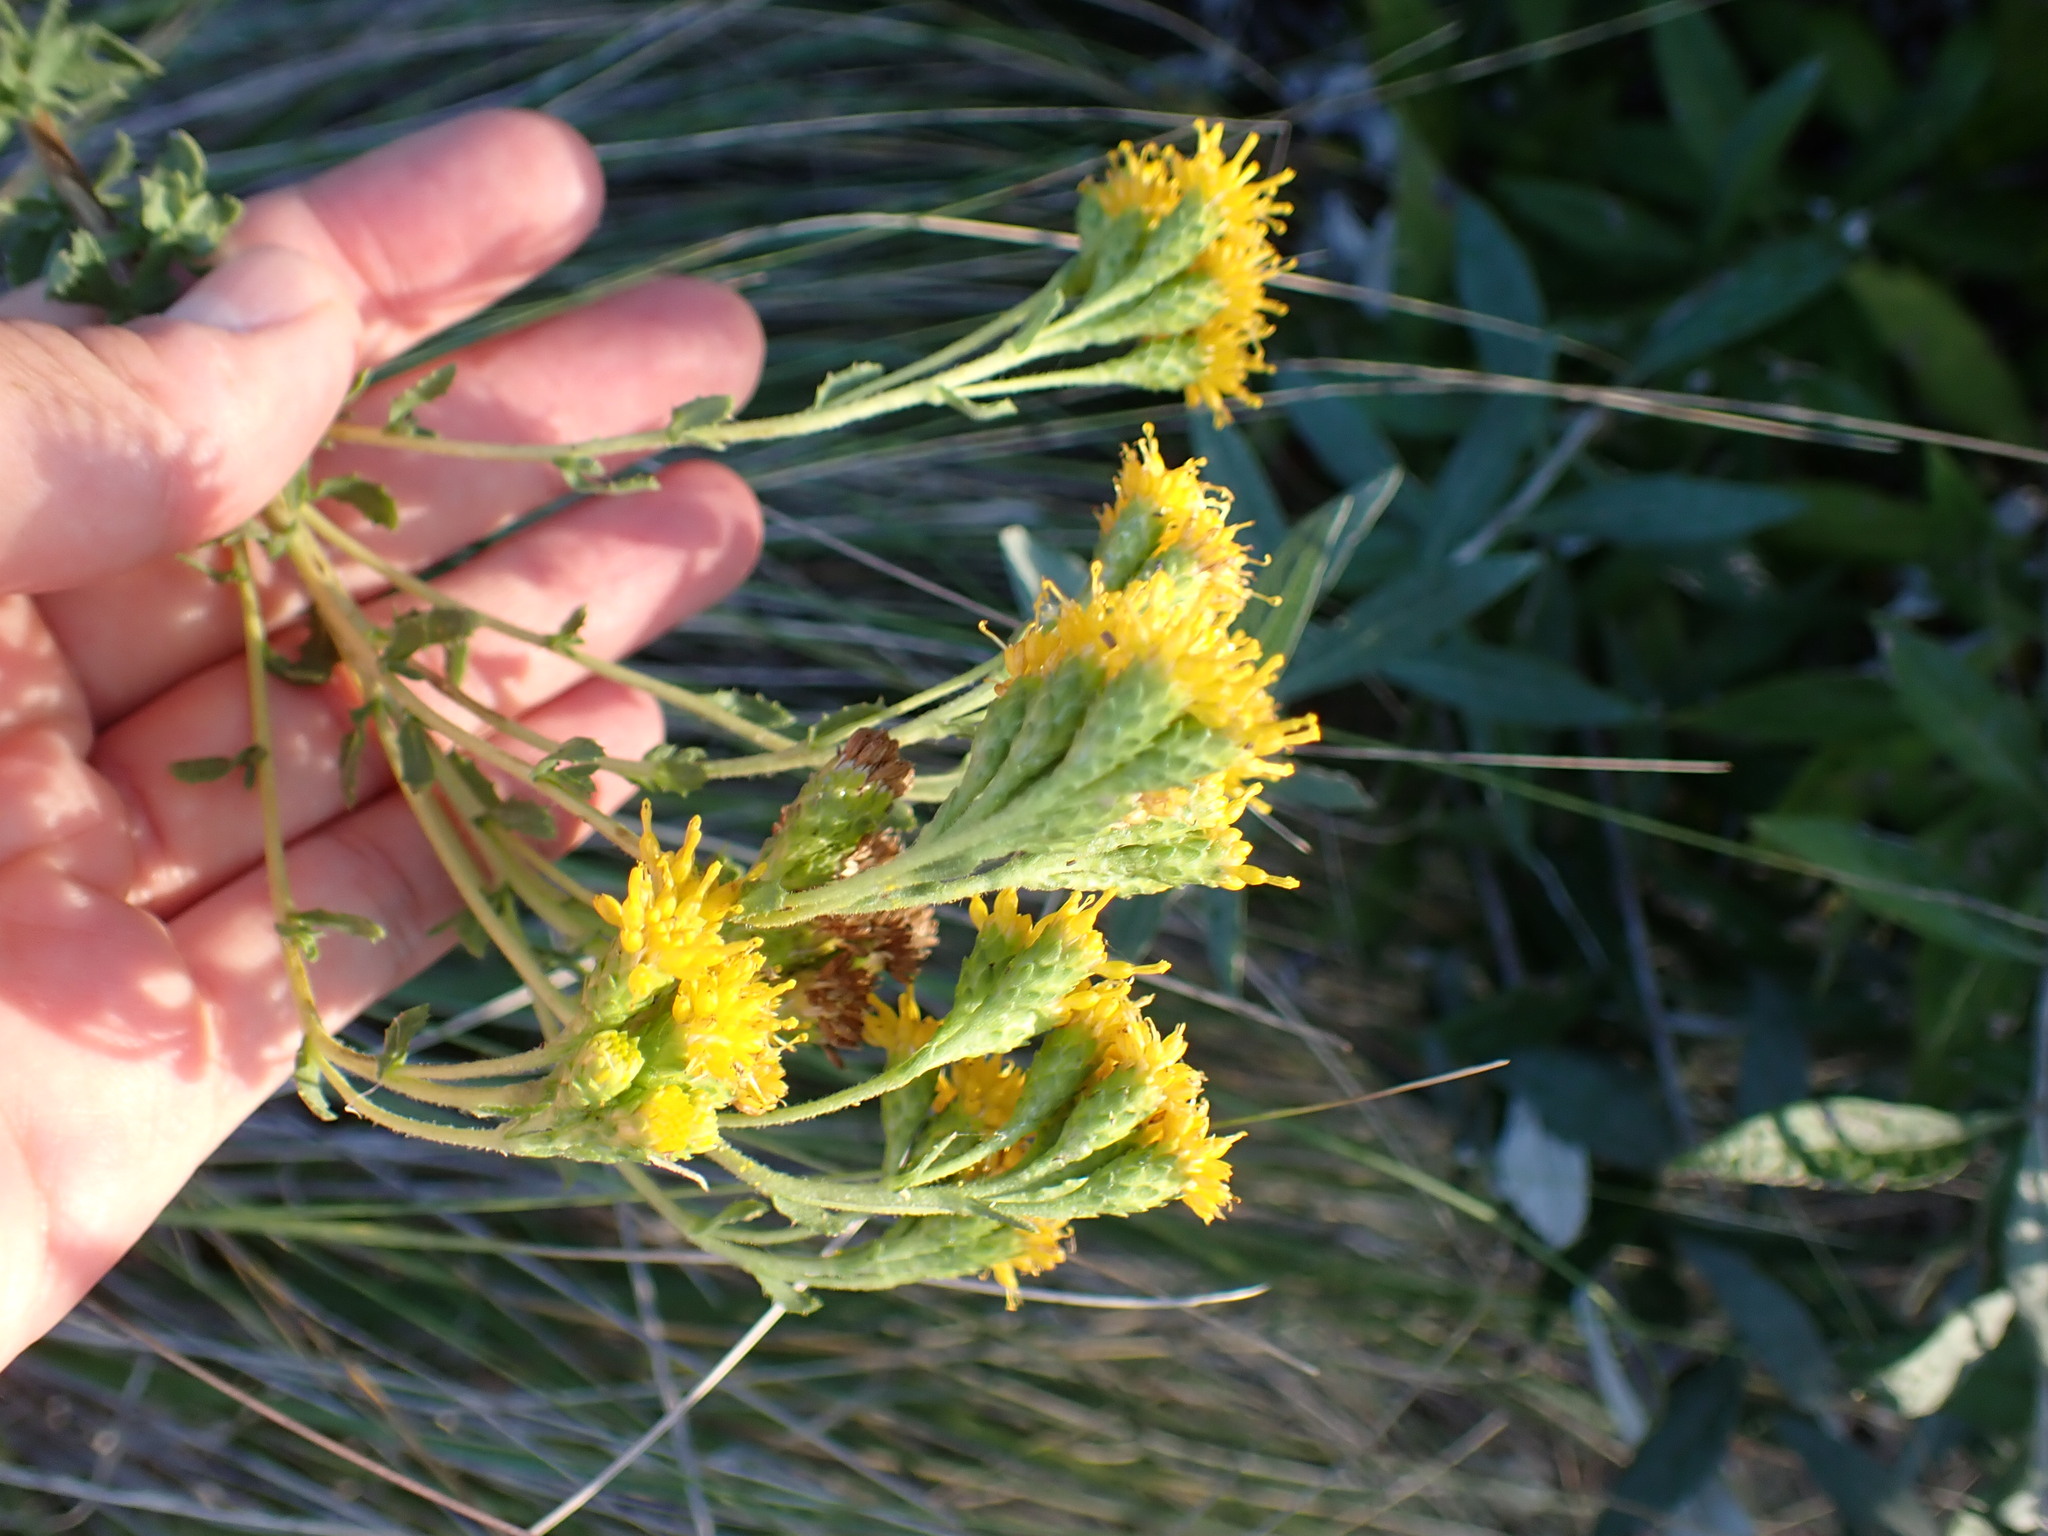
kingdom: Plantae
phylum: Tracheophyta
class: Magnoliopsida
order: Asterales
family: Asteraceae
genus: Isocoma
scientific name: Isocoma menziesii
